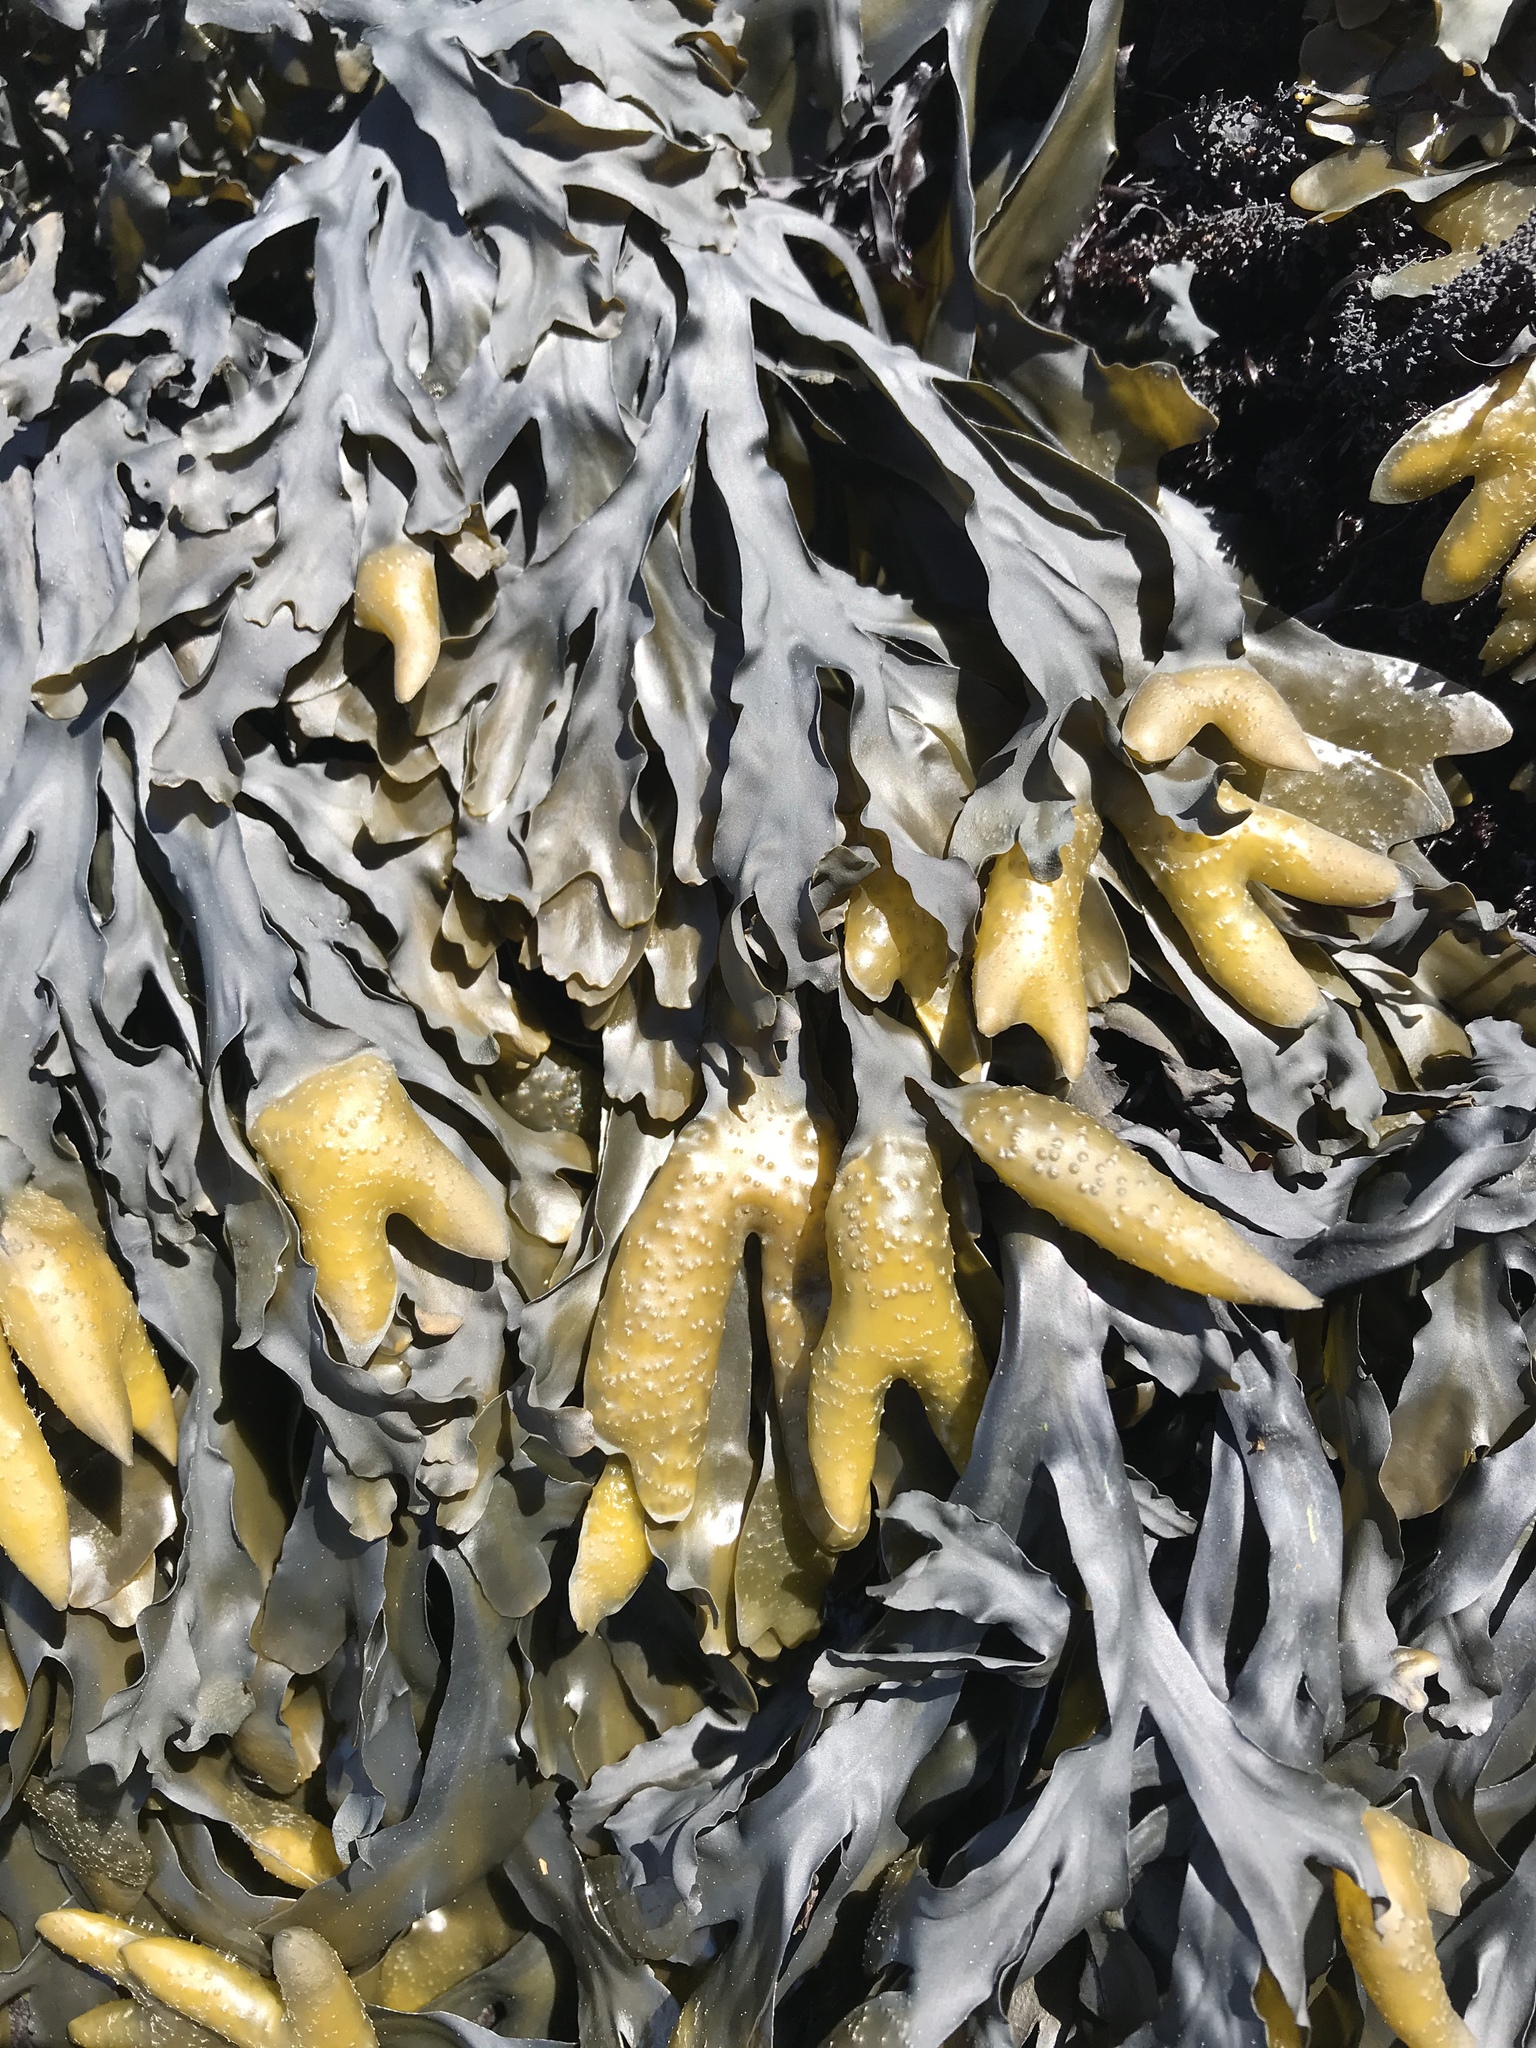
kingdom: Chromista
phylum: Ochrophyta
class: Phaeophyceae
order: Fucales
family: Fucaceae
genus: Fucus
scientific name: Fucus distichus
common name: Rockweed
